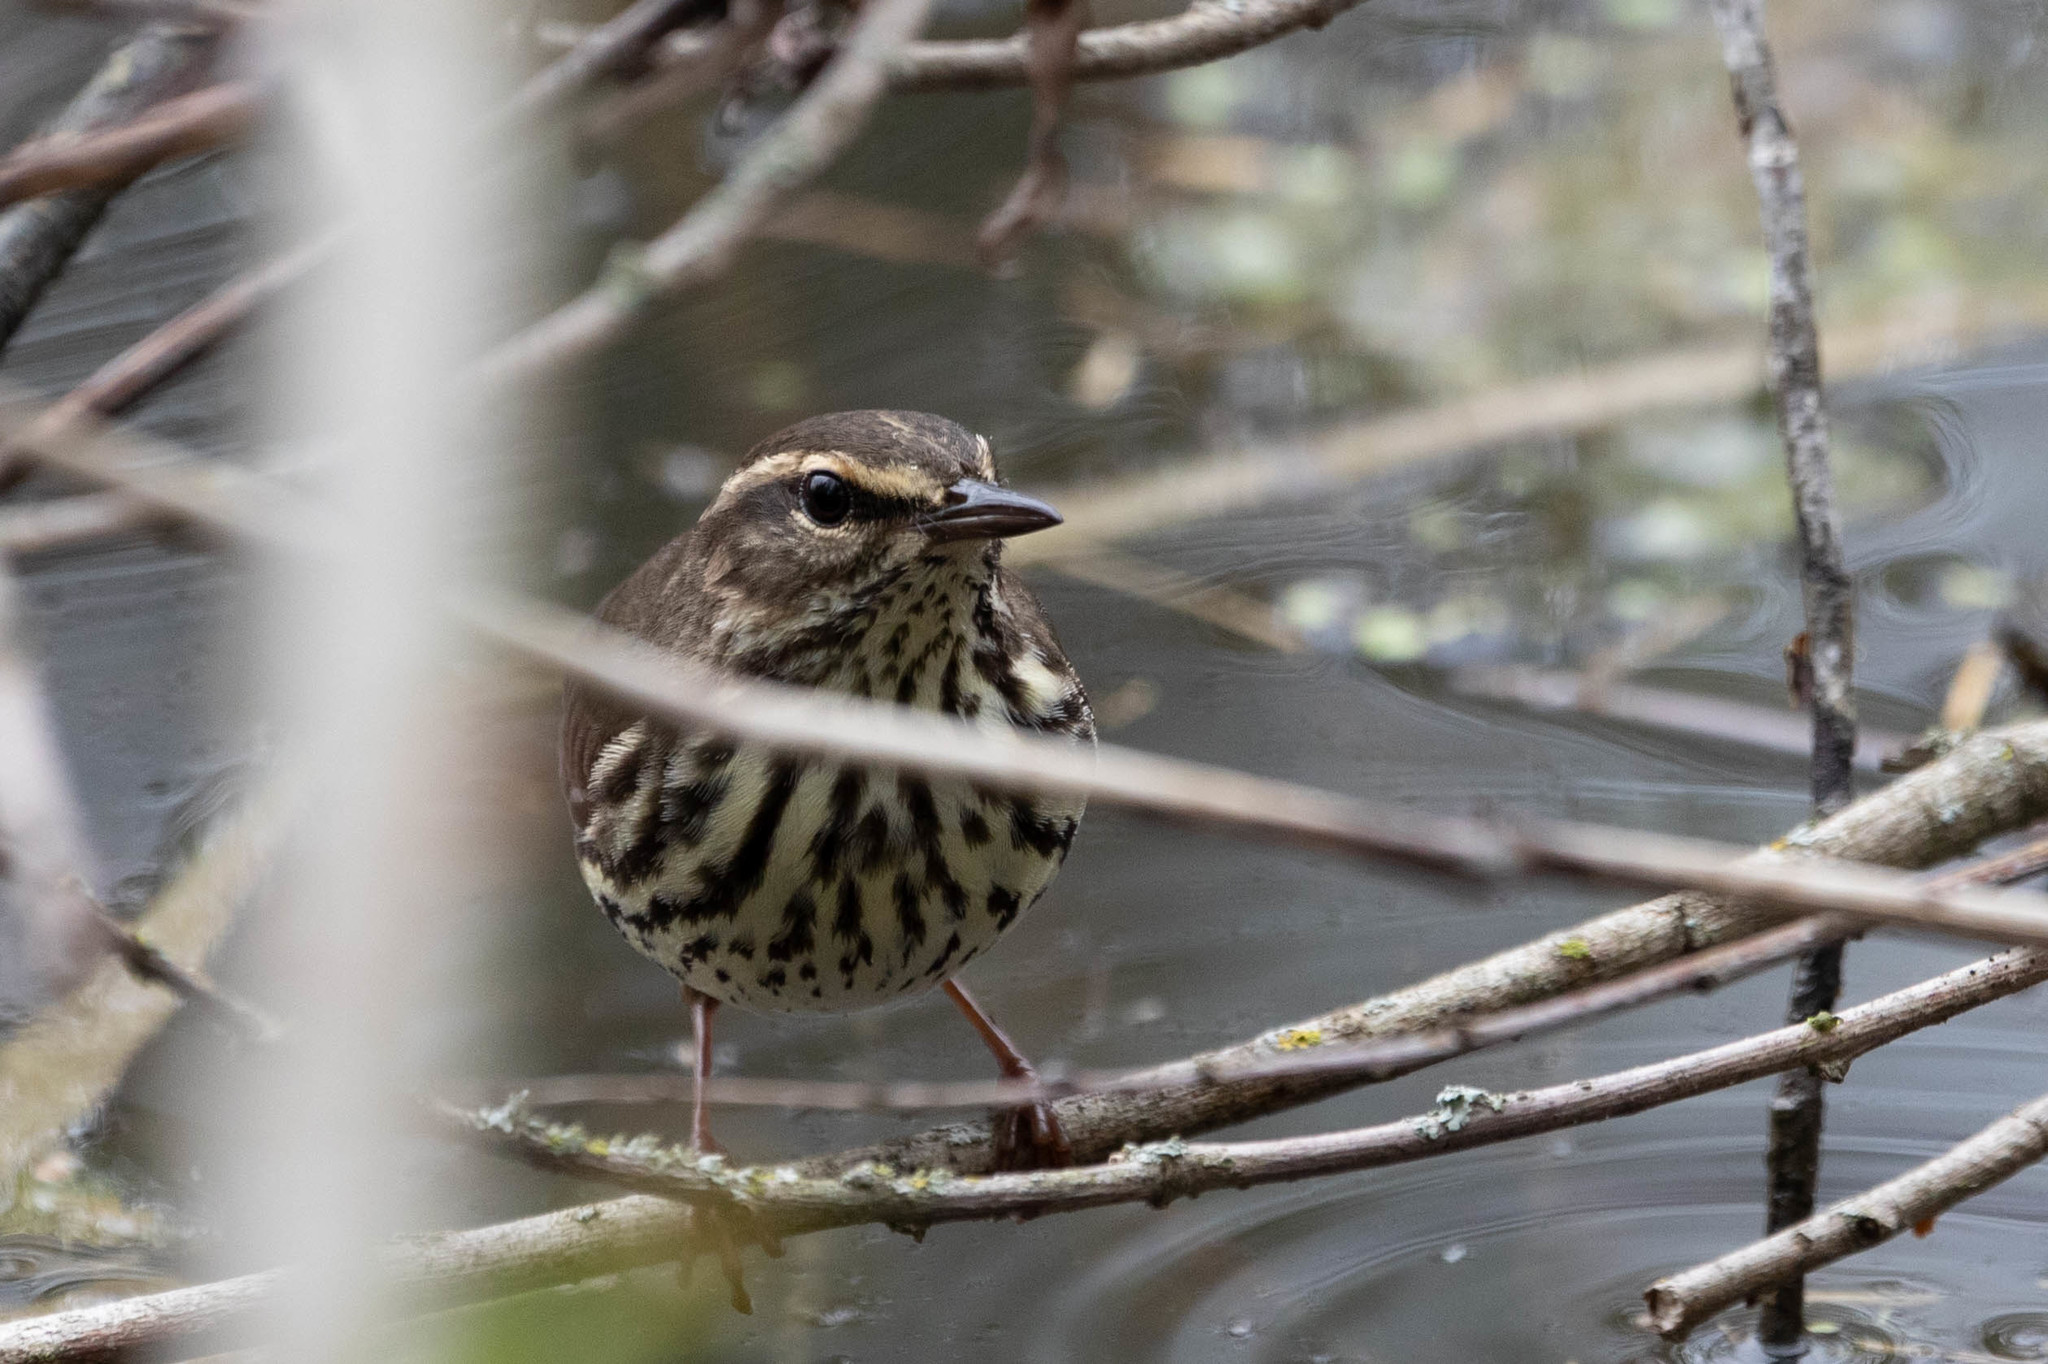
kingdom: Animalia
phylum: Chordata
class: Aves
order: Passeriformes
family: Parulidae
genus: Parkesia
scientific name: Parkesia noveboracensis
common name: Northern waterthrush
